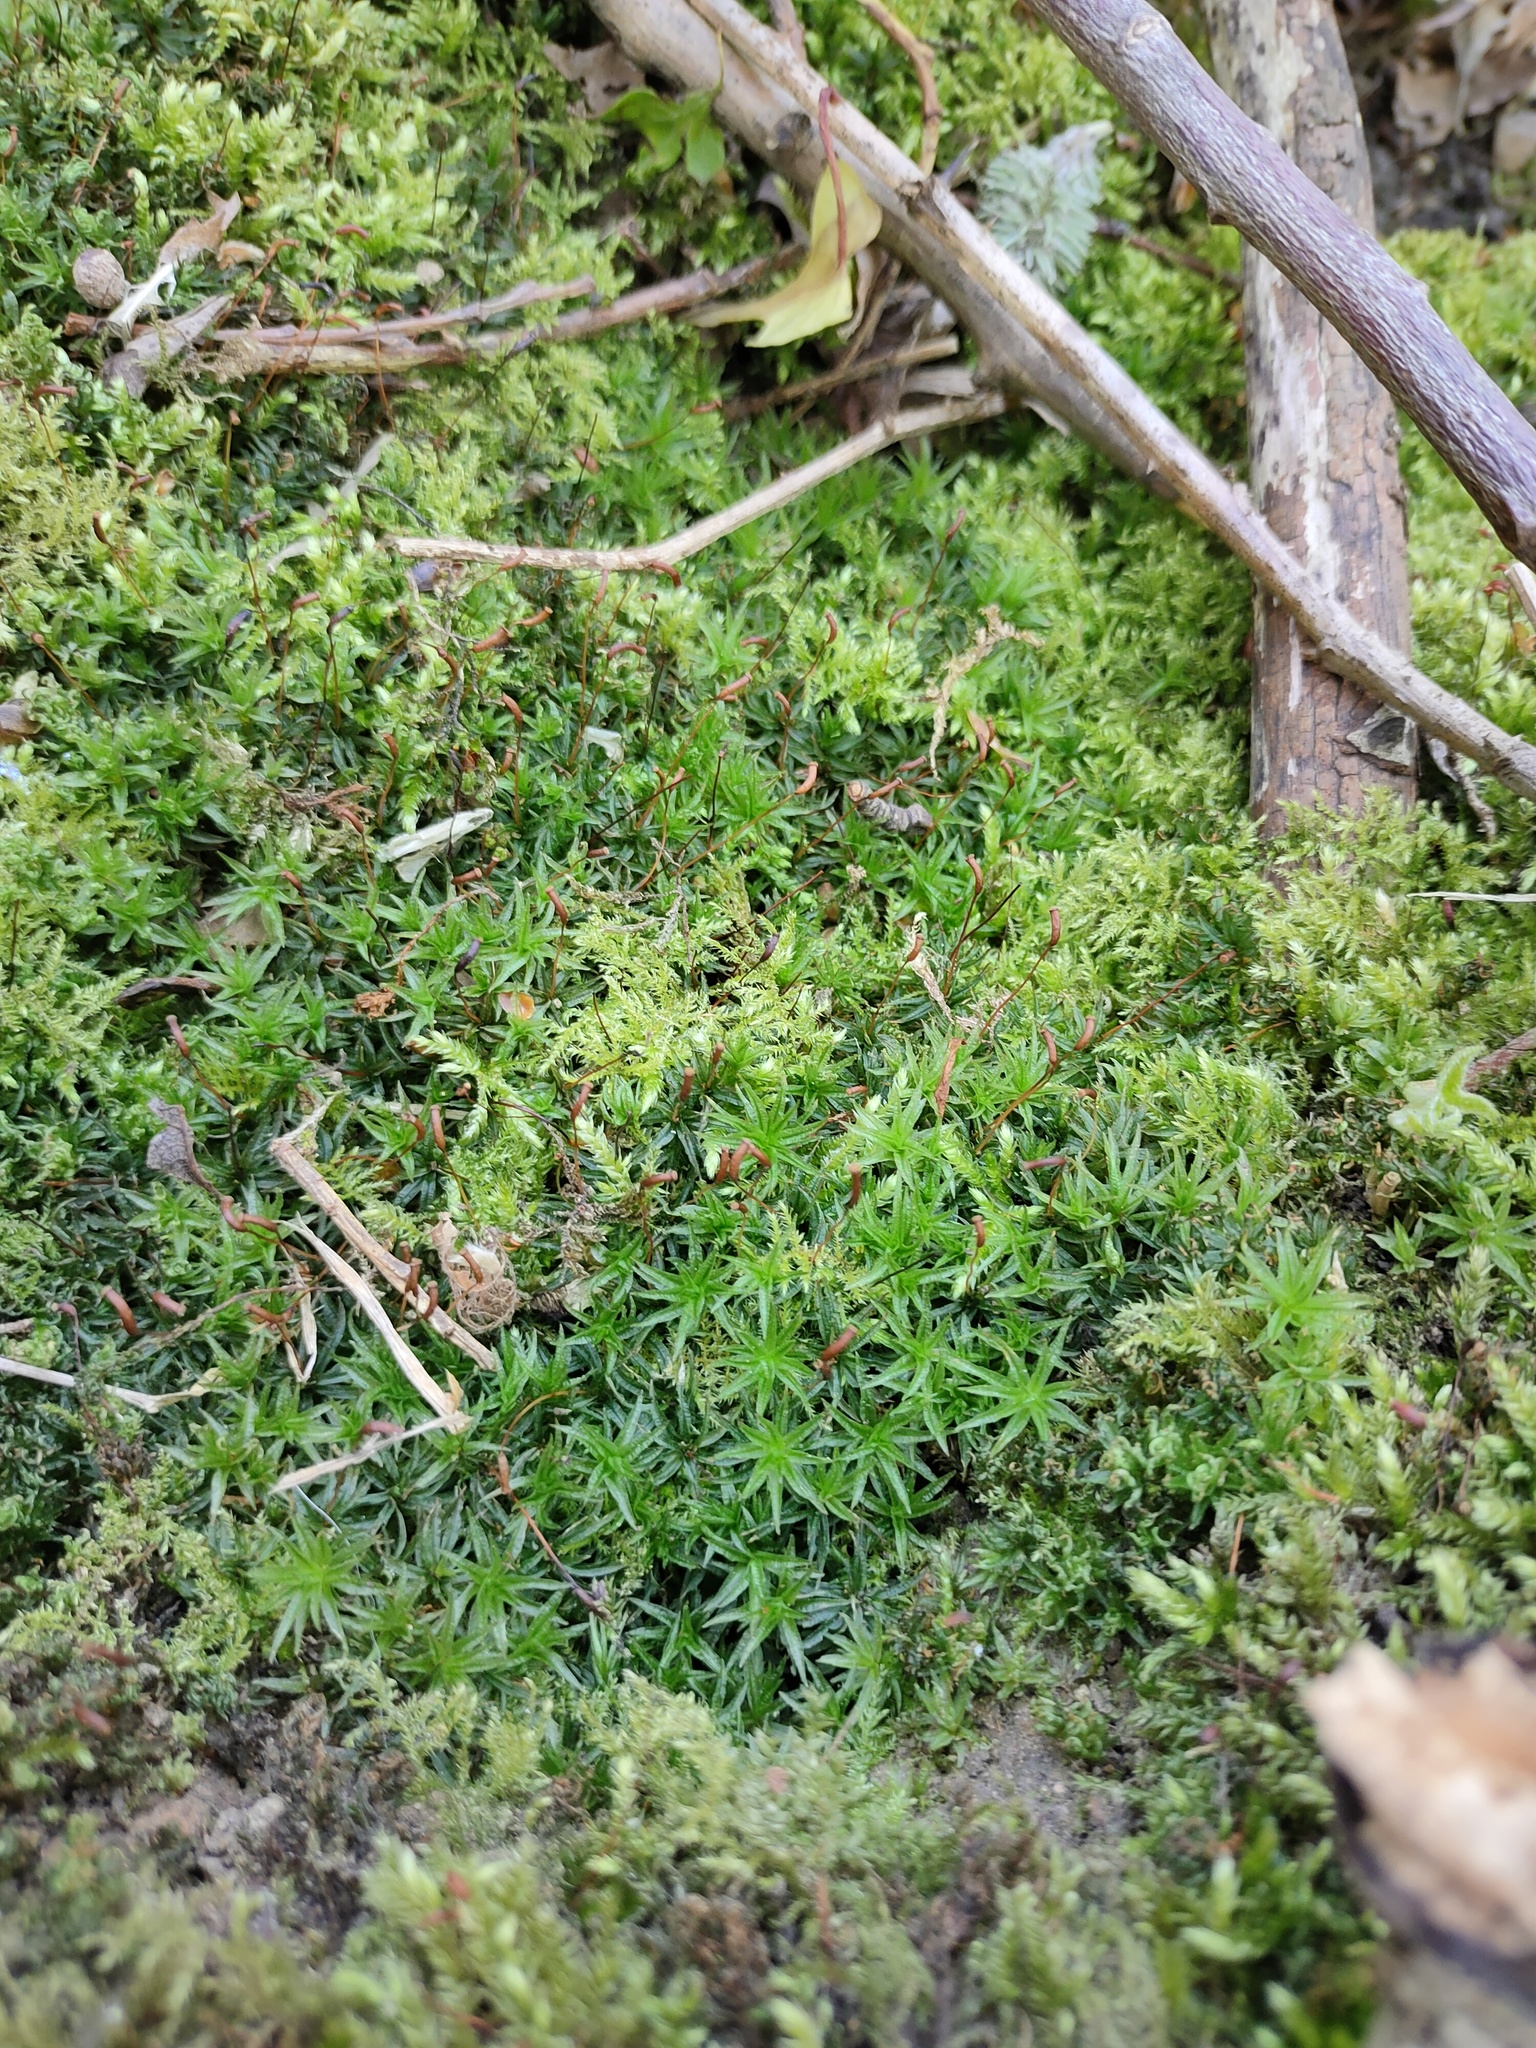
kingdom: Plantae
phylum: Bryophyta
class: Polytrichopsida
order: Polytrichales
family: Polytrichaceae
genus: Atrichum
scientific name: Atrichum undulatum
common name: Common smoothcap
